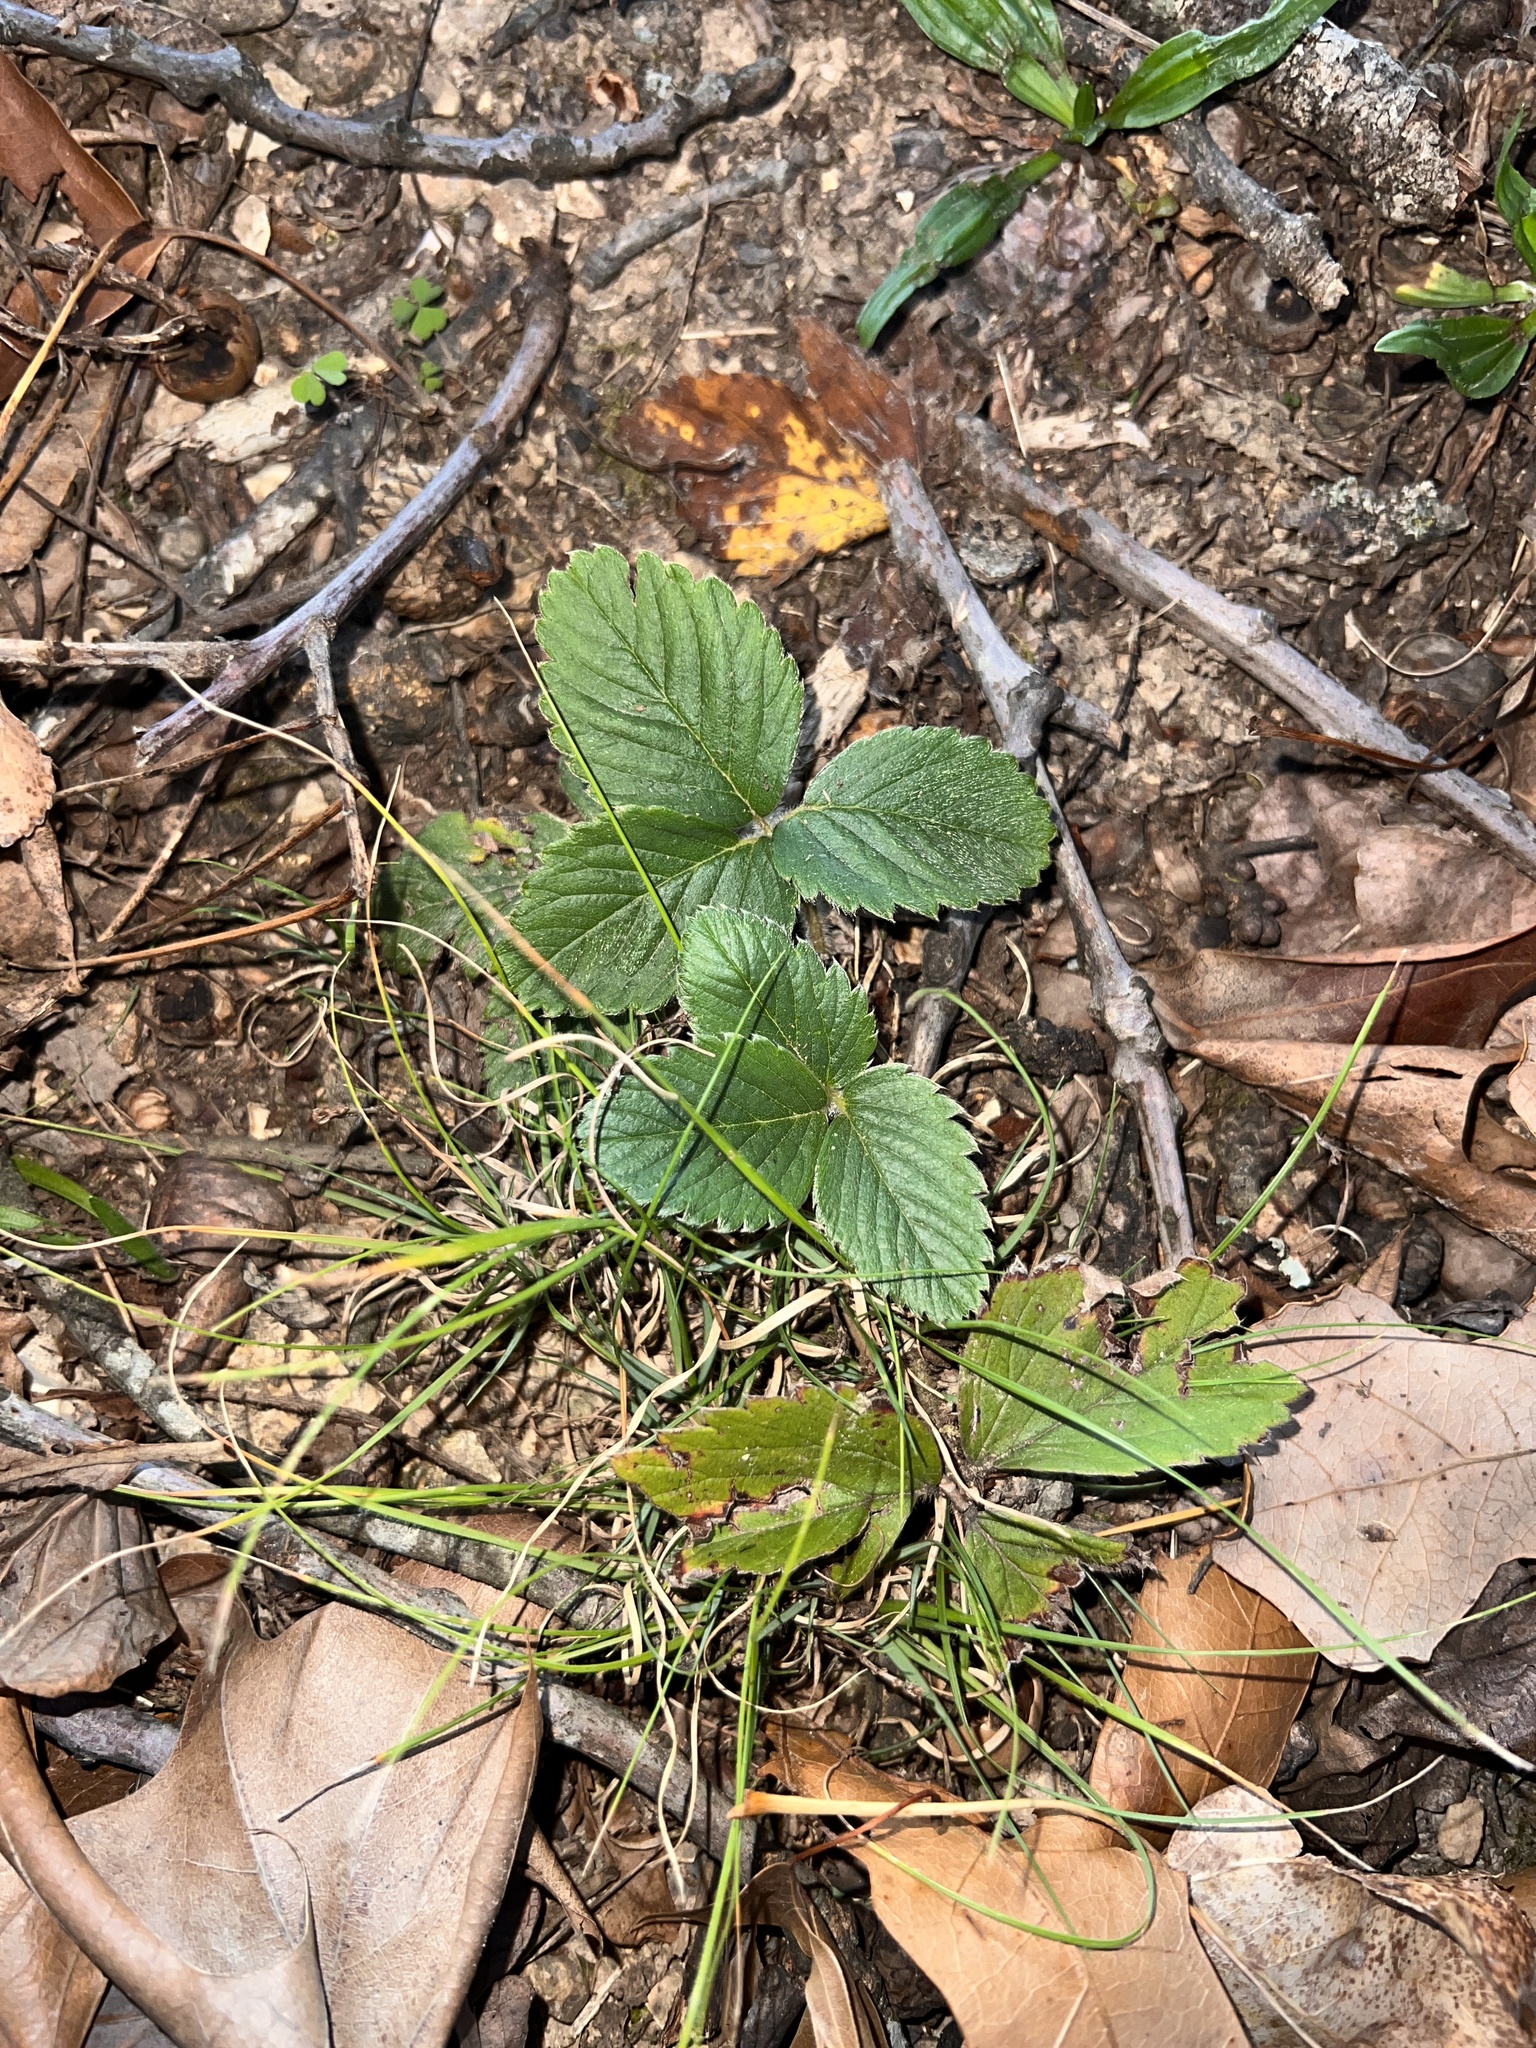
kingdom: Plantae
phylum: Tracheophyta
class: Magnoliopsida
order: Rosales
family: Rosaceae
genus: Fragaria
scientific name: Fragaria virginiana
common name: Thickleaved wild strawberry
